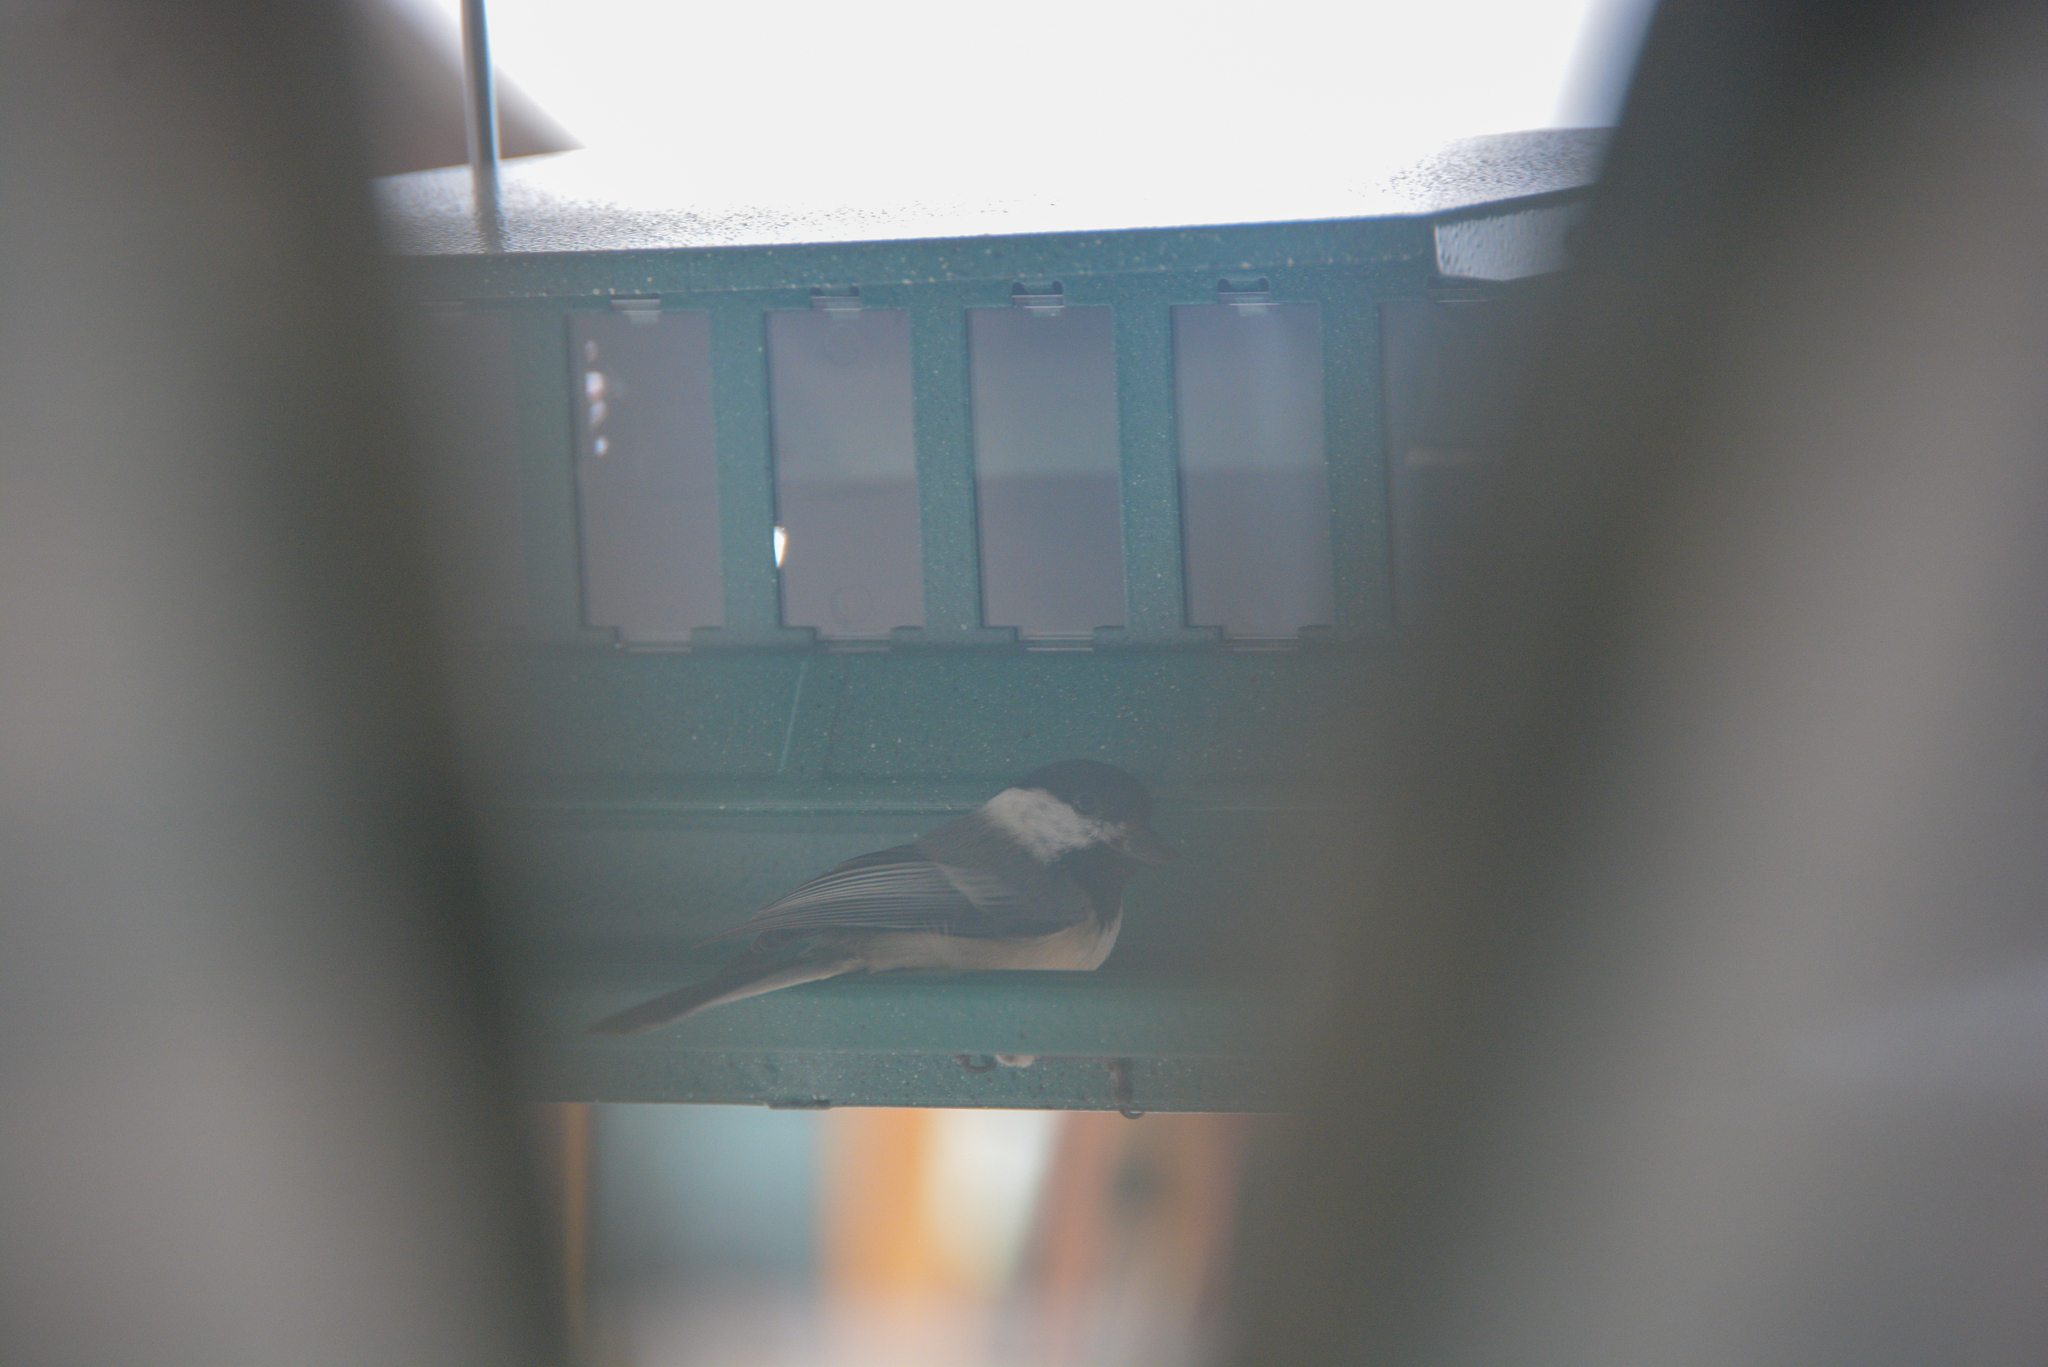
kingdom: Animalia
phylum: Chordata
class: Aves
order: Passeriformes
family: Paridae
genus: Poecile
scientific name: Poecile atricapillus
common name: Black-capped chickadee
